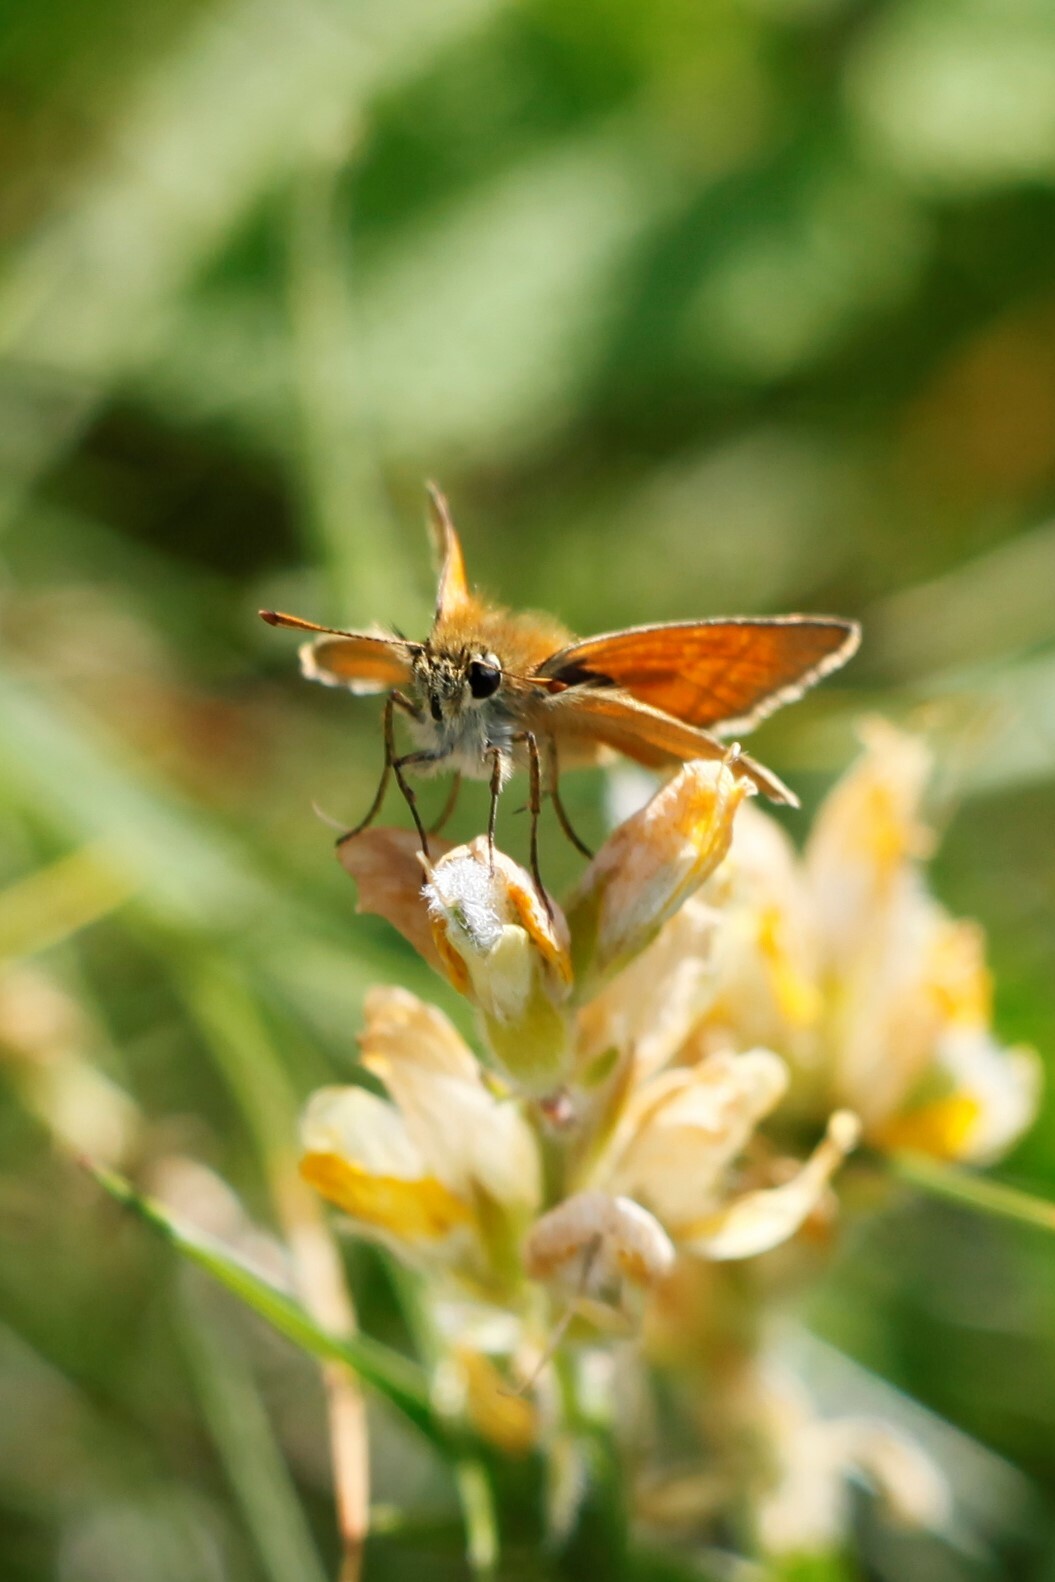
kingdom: Animalia
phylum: Arthropoda
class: Insecta
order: Lepidoptera
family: Hesperiidae
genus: Thymelicus
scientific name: Thymelicus sylvestris
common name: Small skipper
